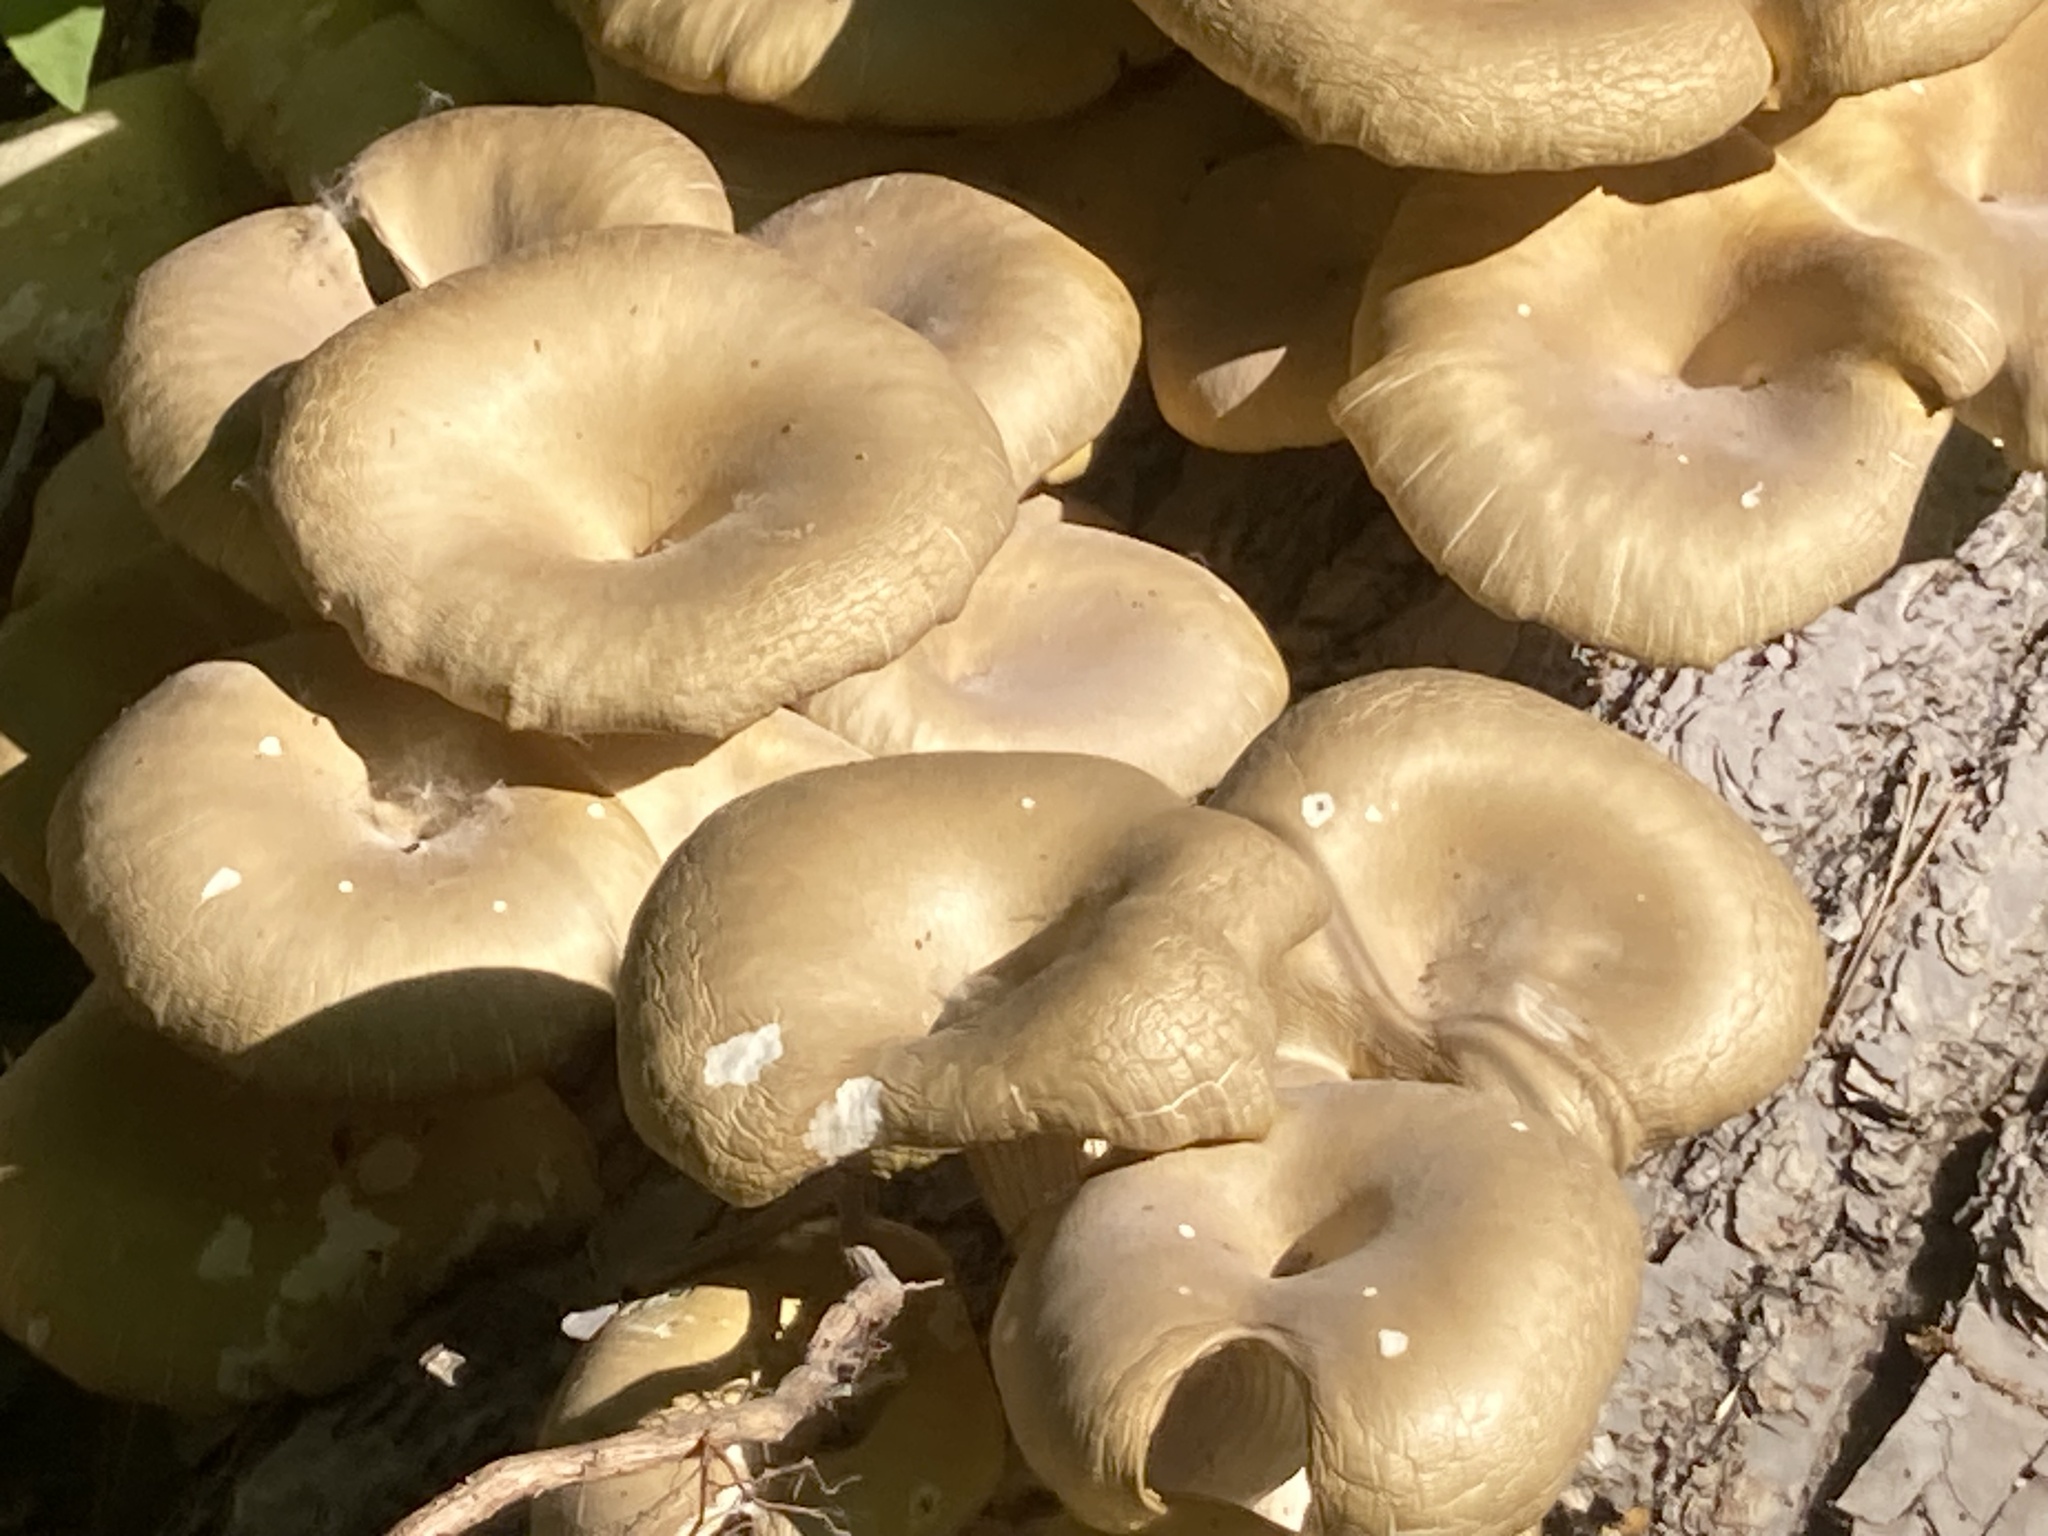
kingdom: Fungi
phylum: Basidiomycota
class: Agaricomycetes
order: Agaricales
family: Pleurotaceae
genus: Pleurotus
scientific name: Pleurotus pulmonarius
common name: Pale oyster
